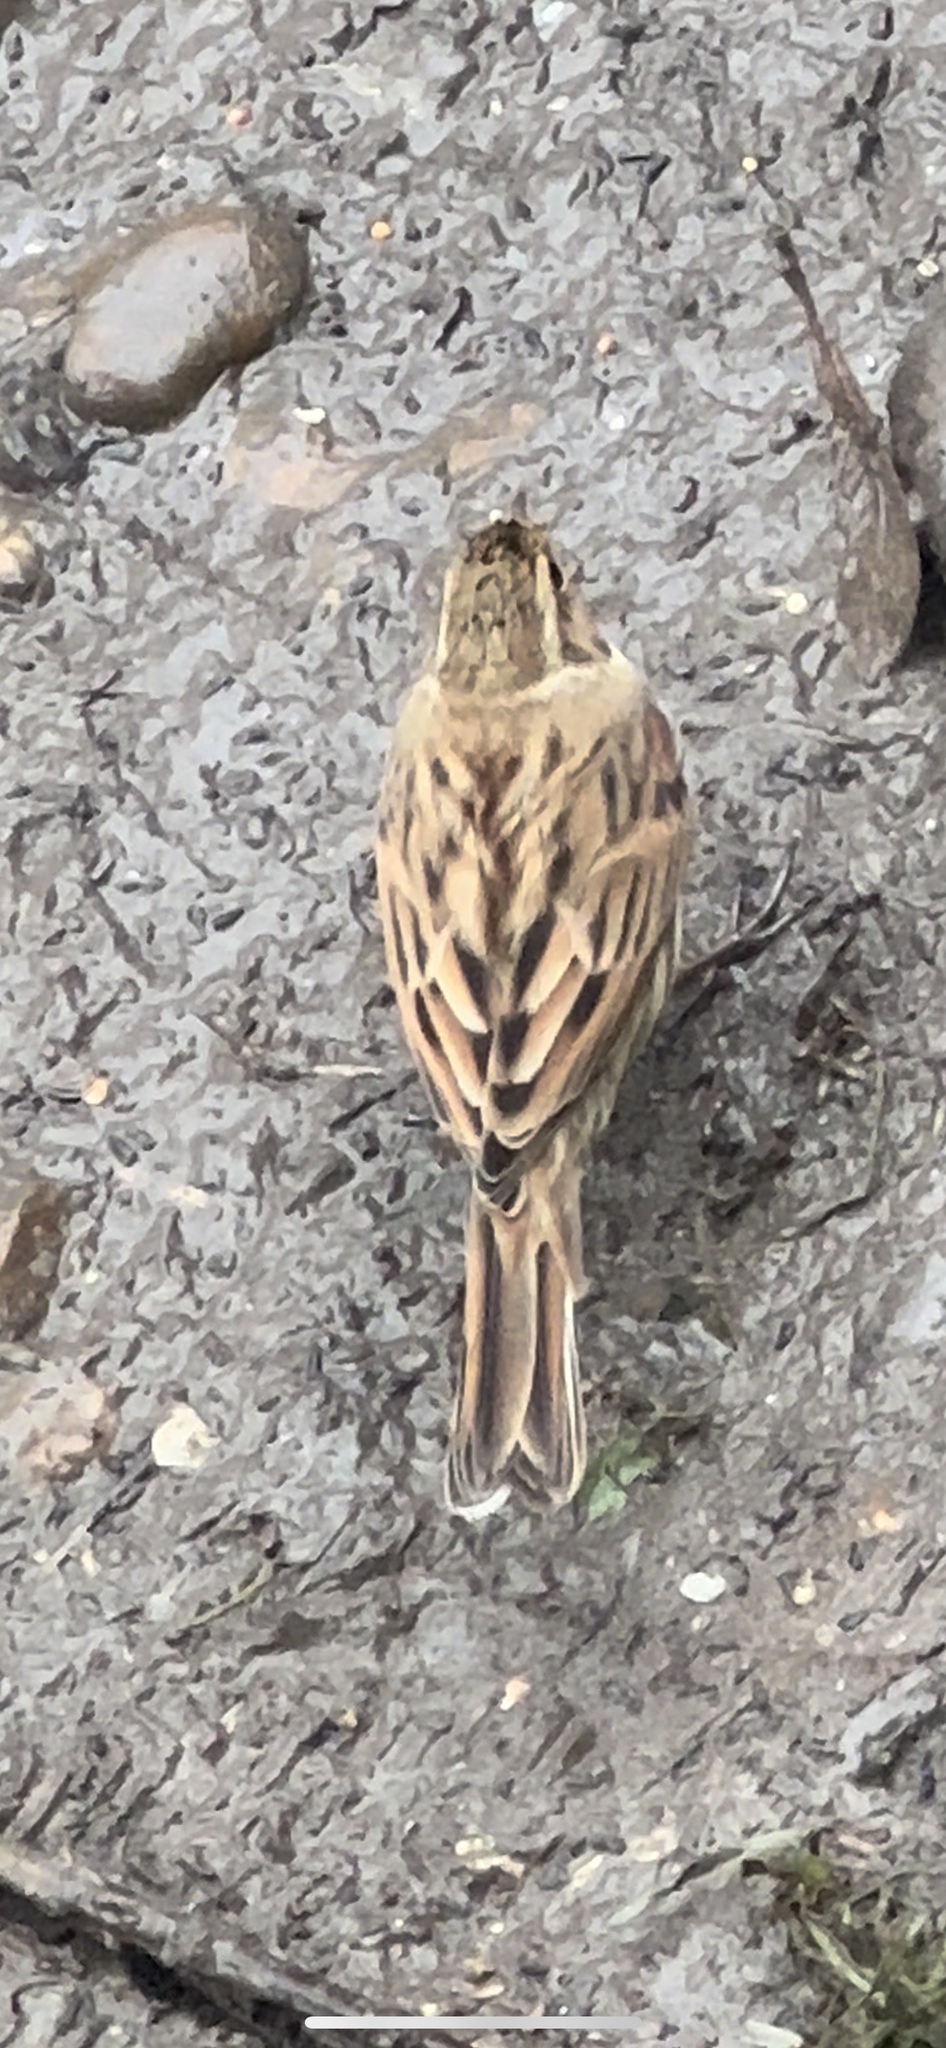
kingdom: Animalia
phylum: Chordata
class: Aves
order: Passeriformes
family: Emberizidae
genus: Emberiza
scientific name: Emberiza schoeniclus
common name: Reed bunting
